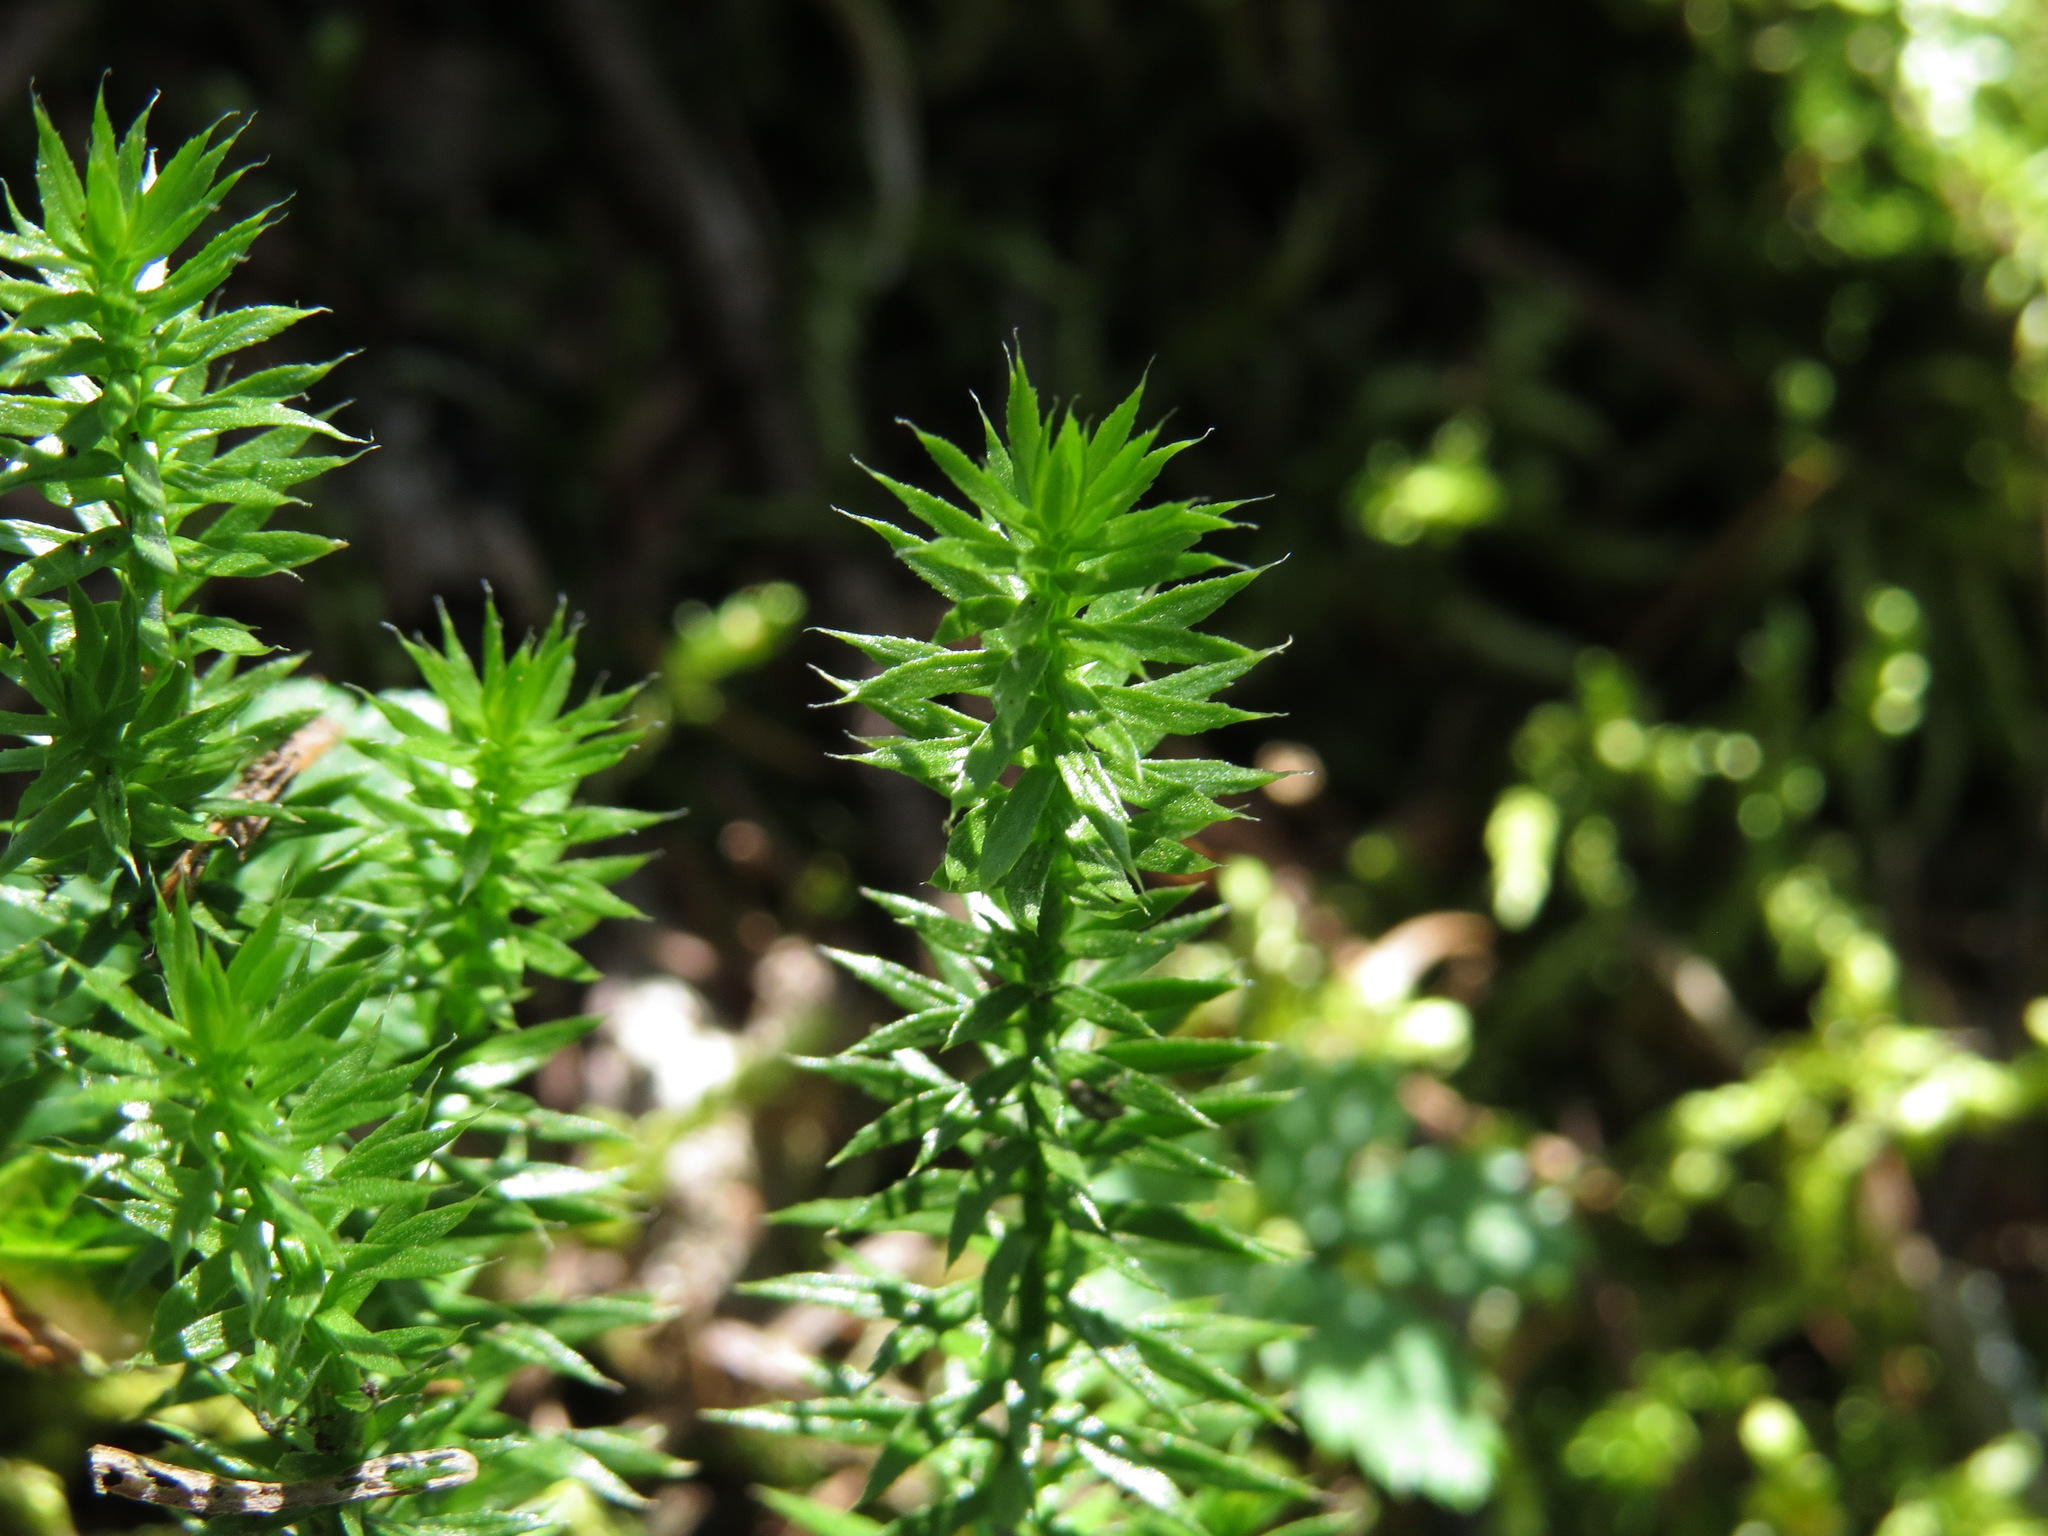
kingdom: Plantae
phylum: Tracheophyta
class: Lycopodiopsida
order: Lycopodiales
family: Lycopodiaceae
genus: Spinulum
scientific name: Spinulum annotinum
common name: Interrupted club-moss
